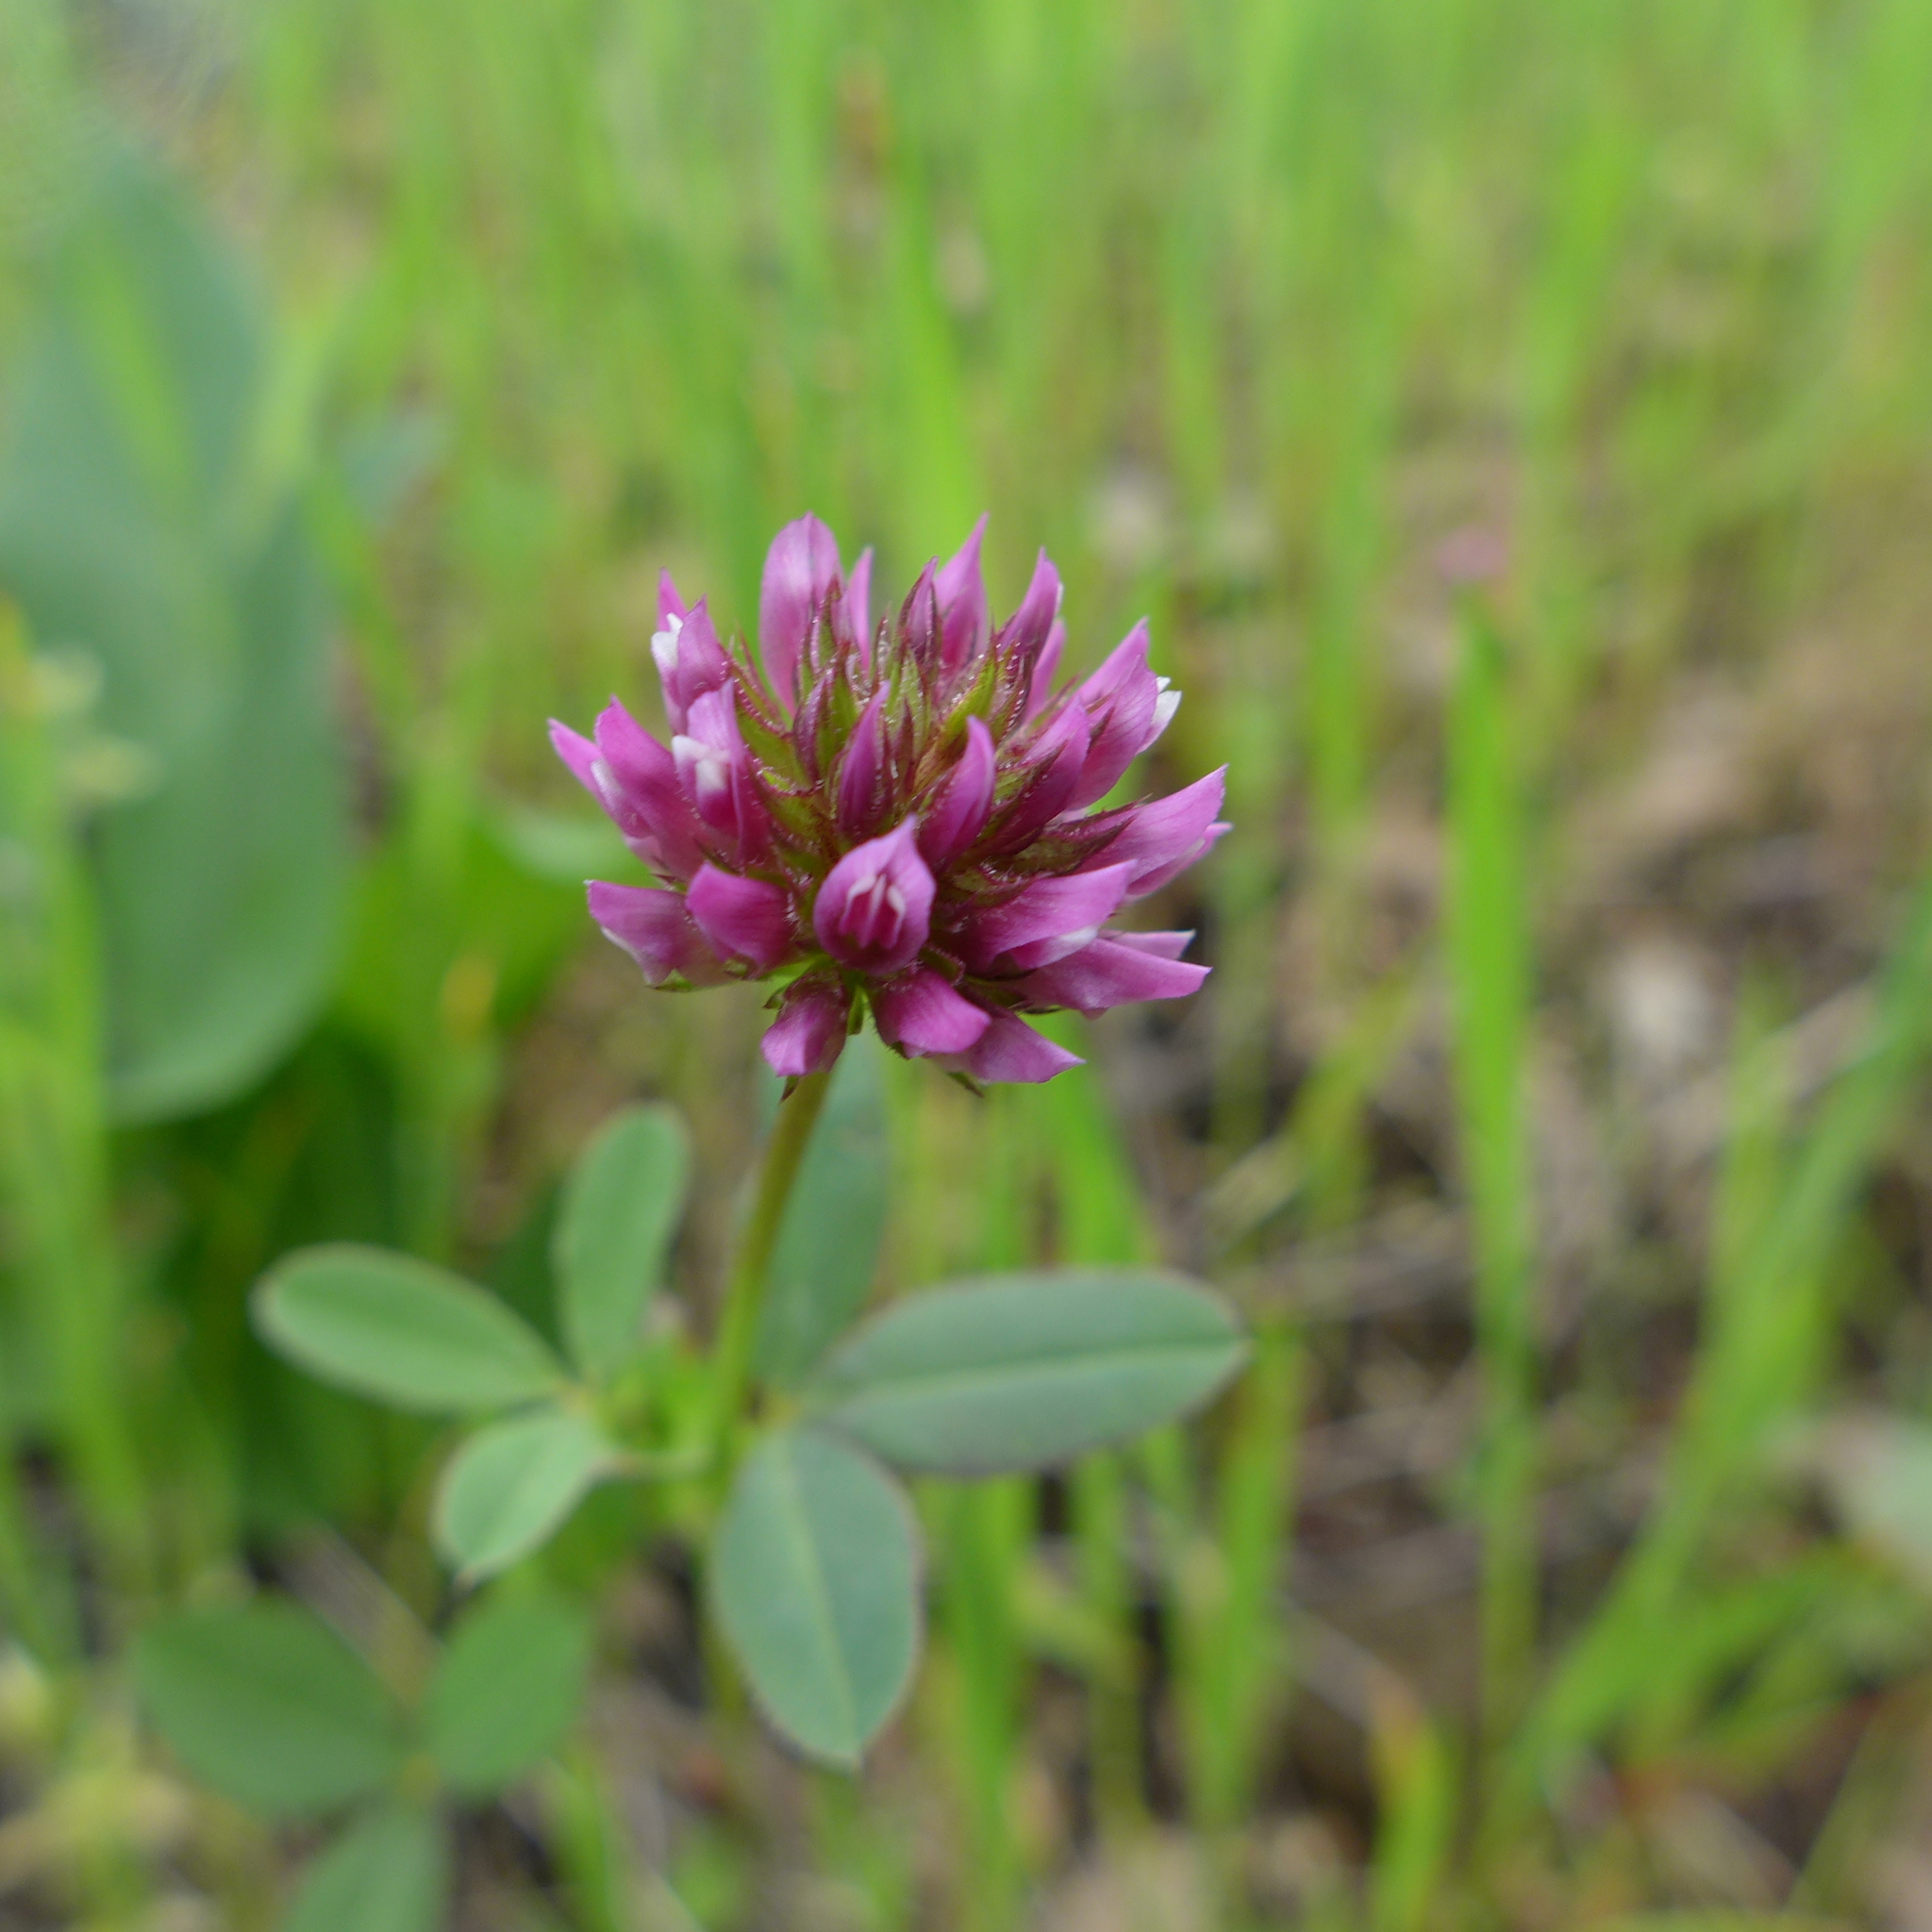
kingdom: Plantae
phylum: Tracheophyta
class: Magnoliopsida
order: Fabales
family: Fabaceae
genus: Trifolium
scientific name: Trifolium ciliolatum
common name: Foothill clover
